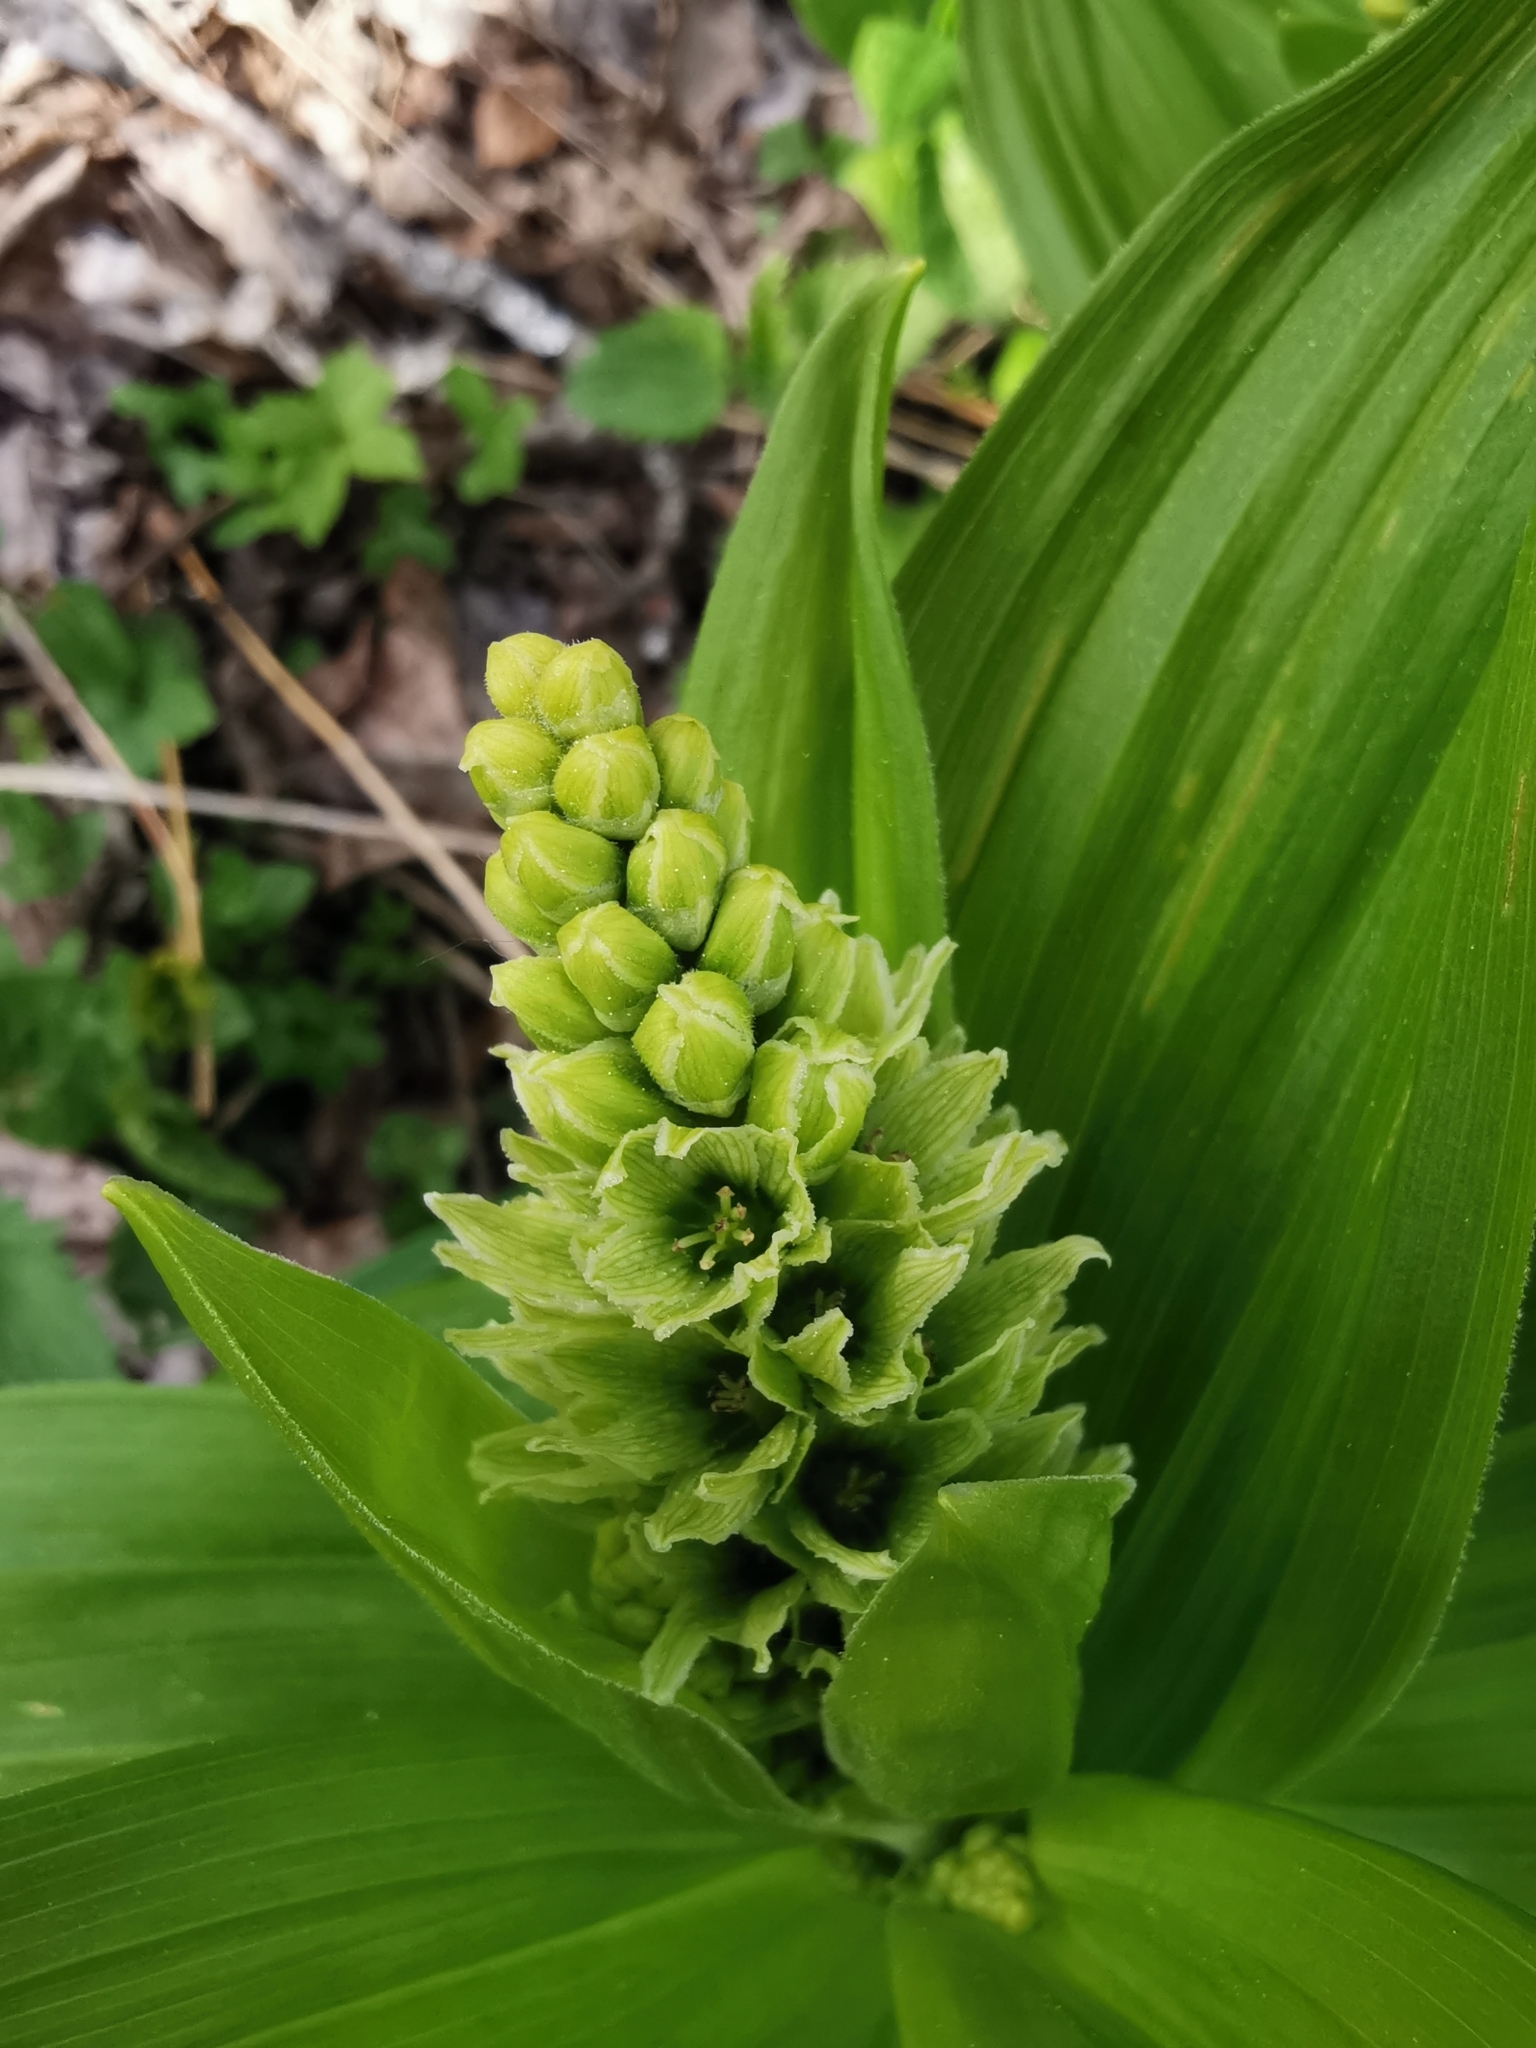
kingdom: Plantae
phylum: Tracheophyta
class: Liliopsida
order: Liliales
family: Melanthiaceae
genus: Veratrum
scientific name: Veratrum lobelianum
